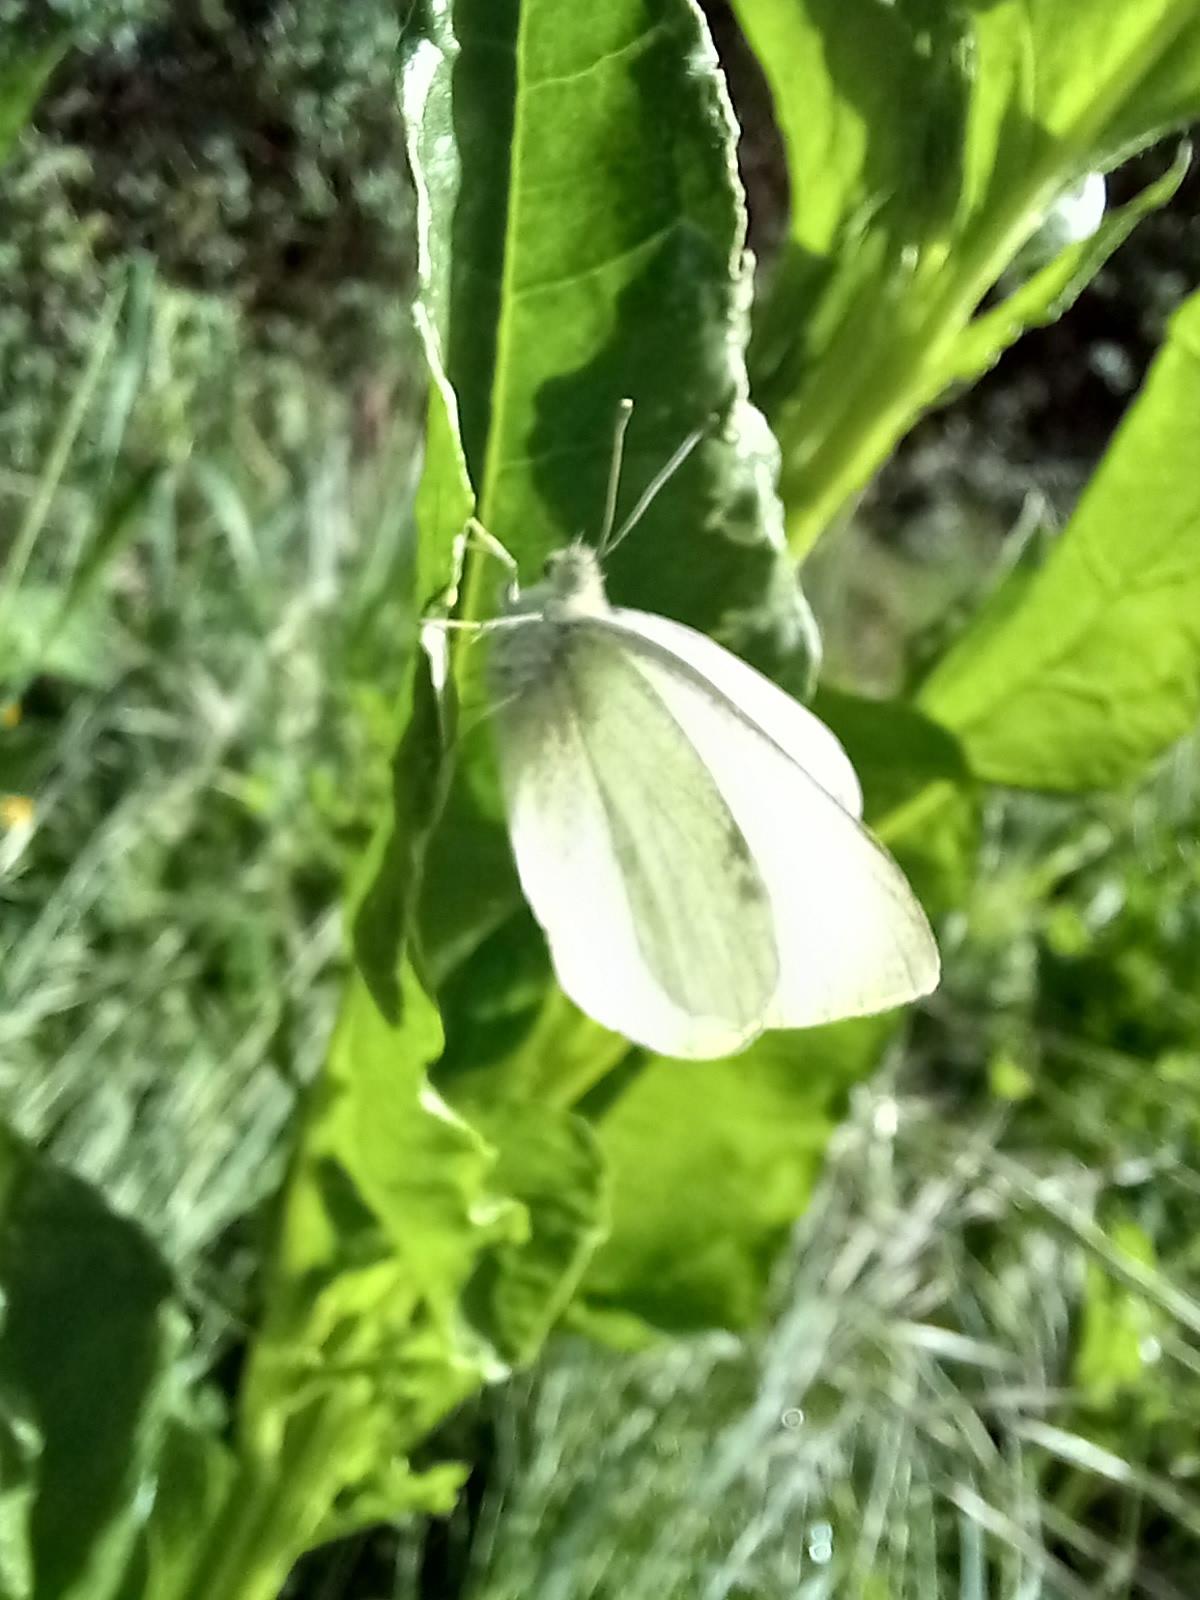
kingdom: Animalia
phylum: Arthropoda
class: Insecta
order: Lepidoptera
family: Pieridae
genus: Pieris
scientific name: Pieris rapae
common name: Small white
